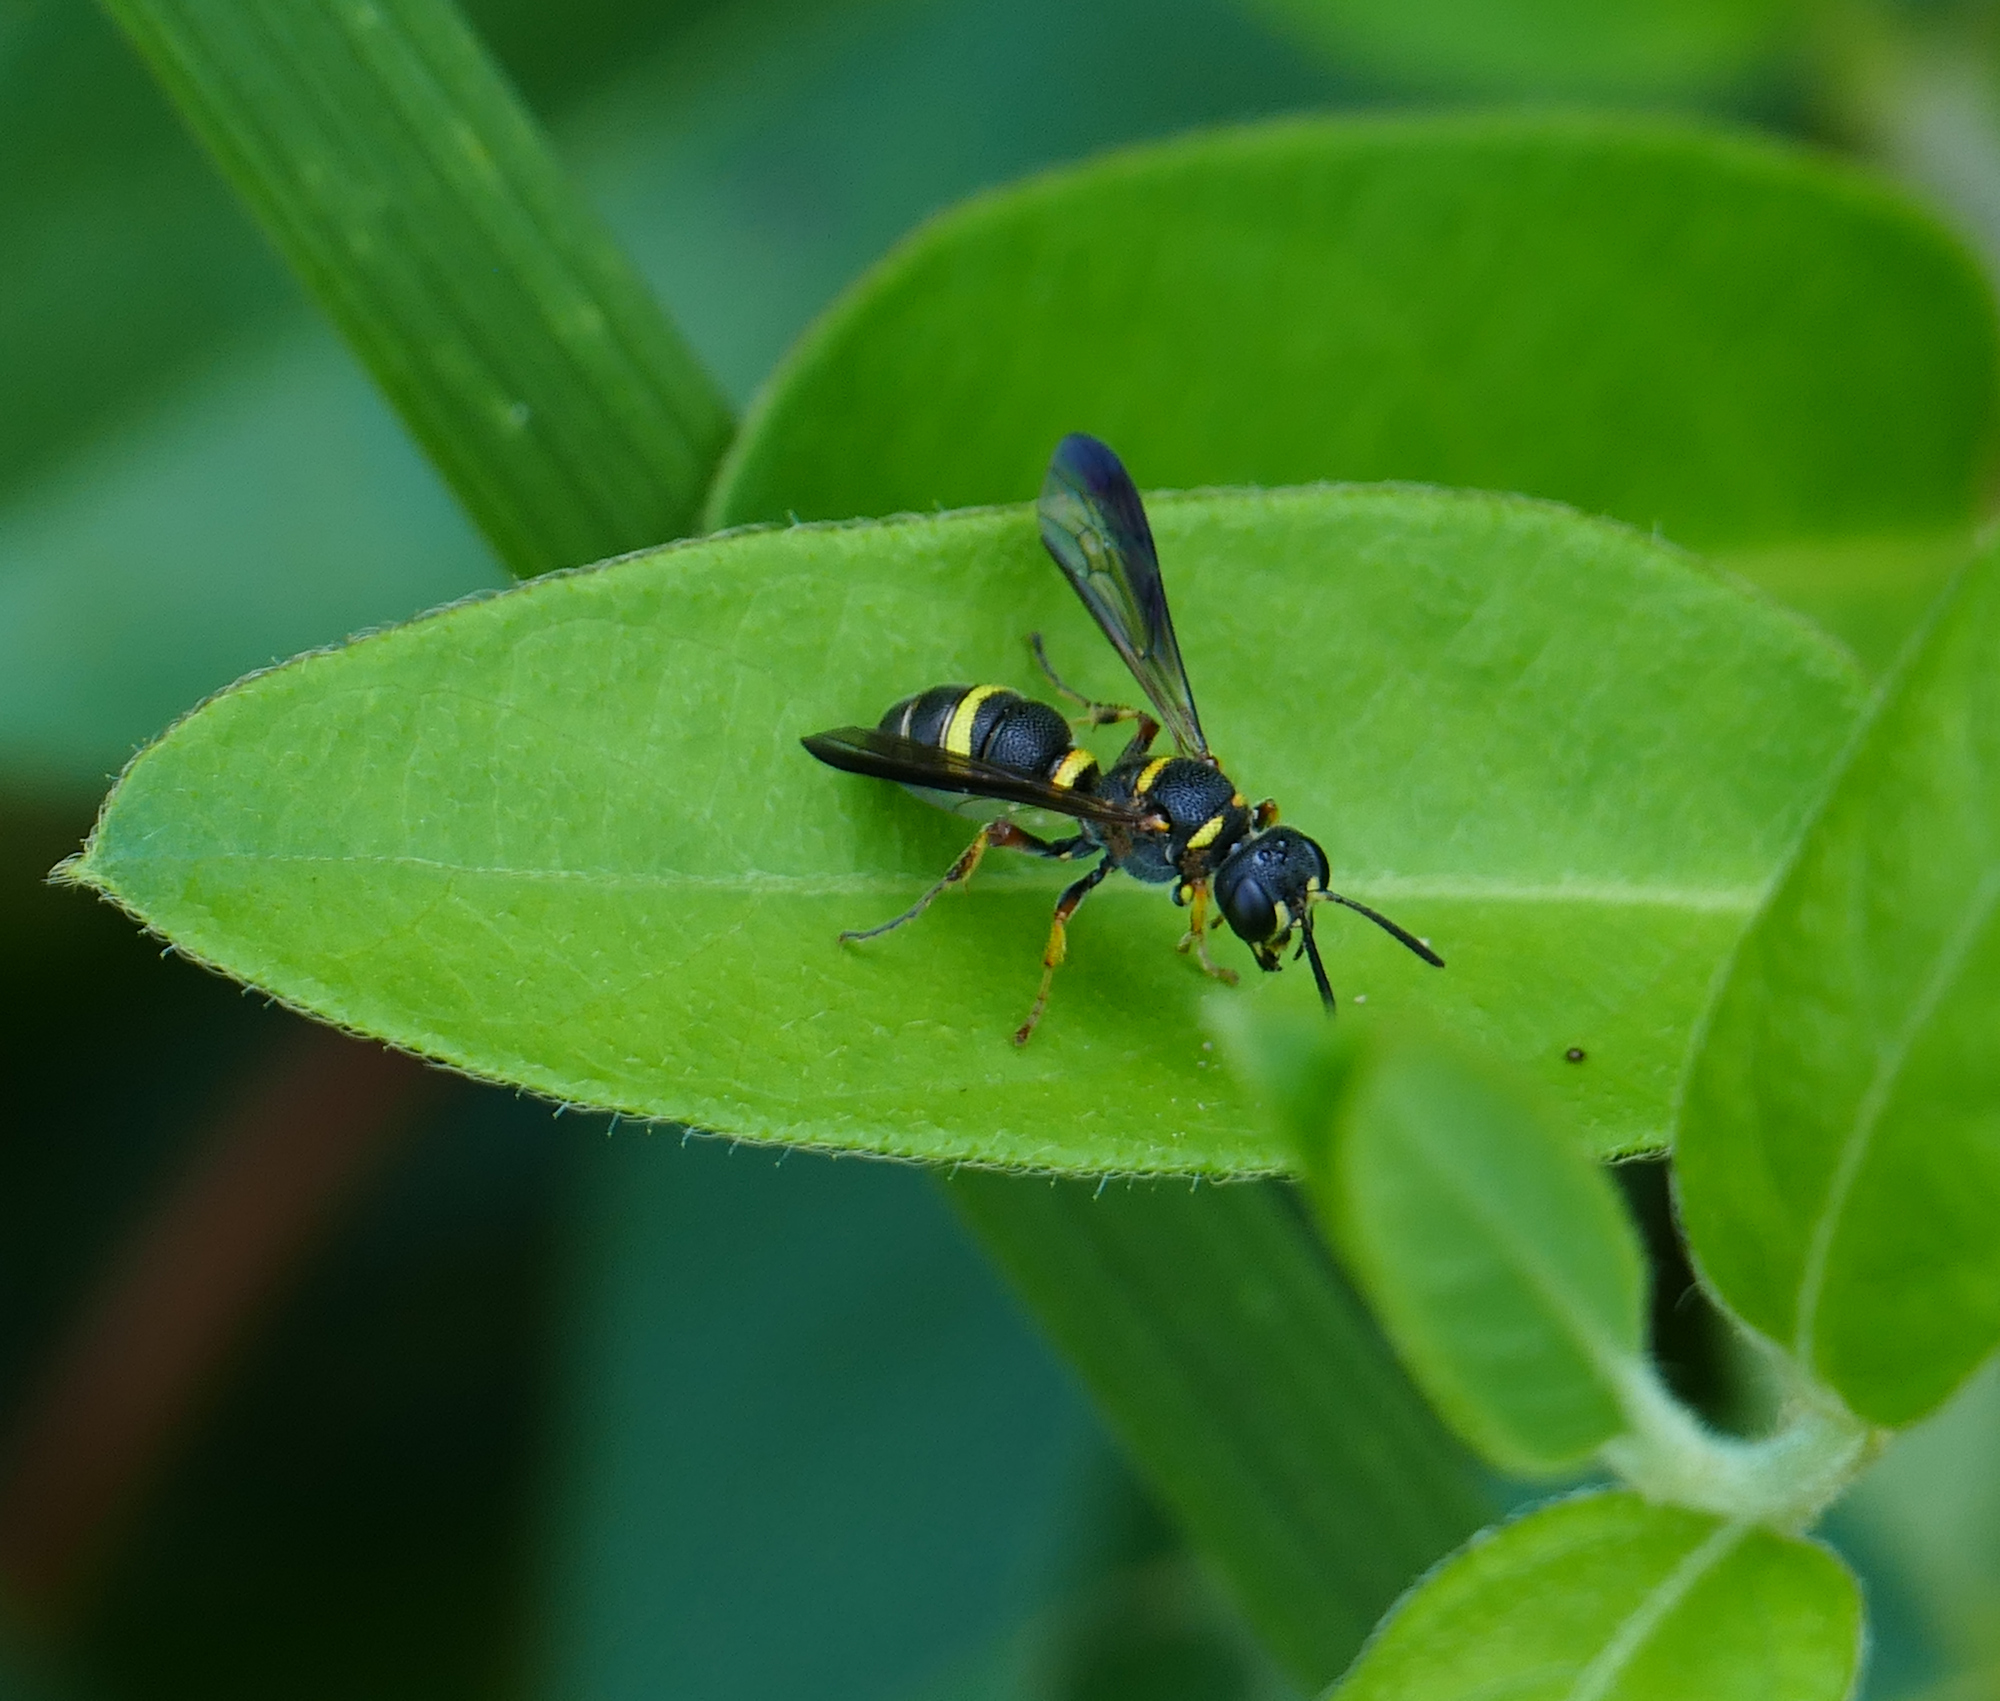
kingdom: Animalia
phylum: Arthropoda
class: Insecta
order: Hymenoptera
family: Crabronidae
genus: Cerceris
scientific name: Cerceris insolita
